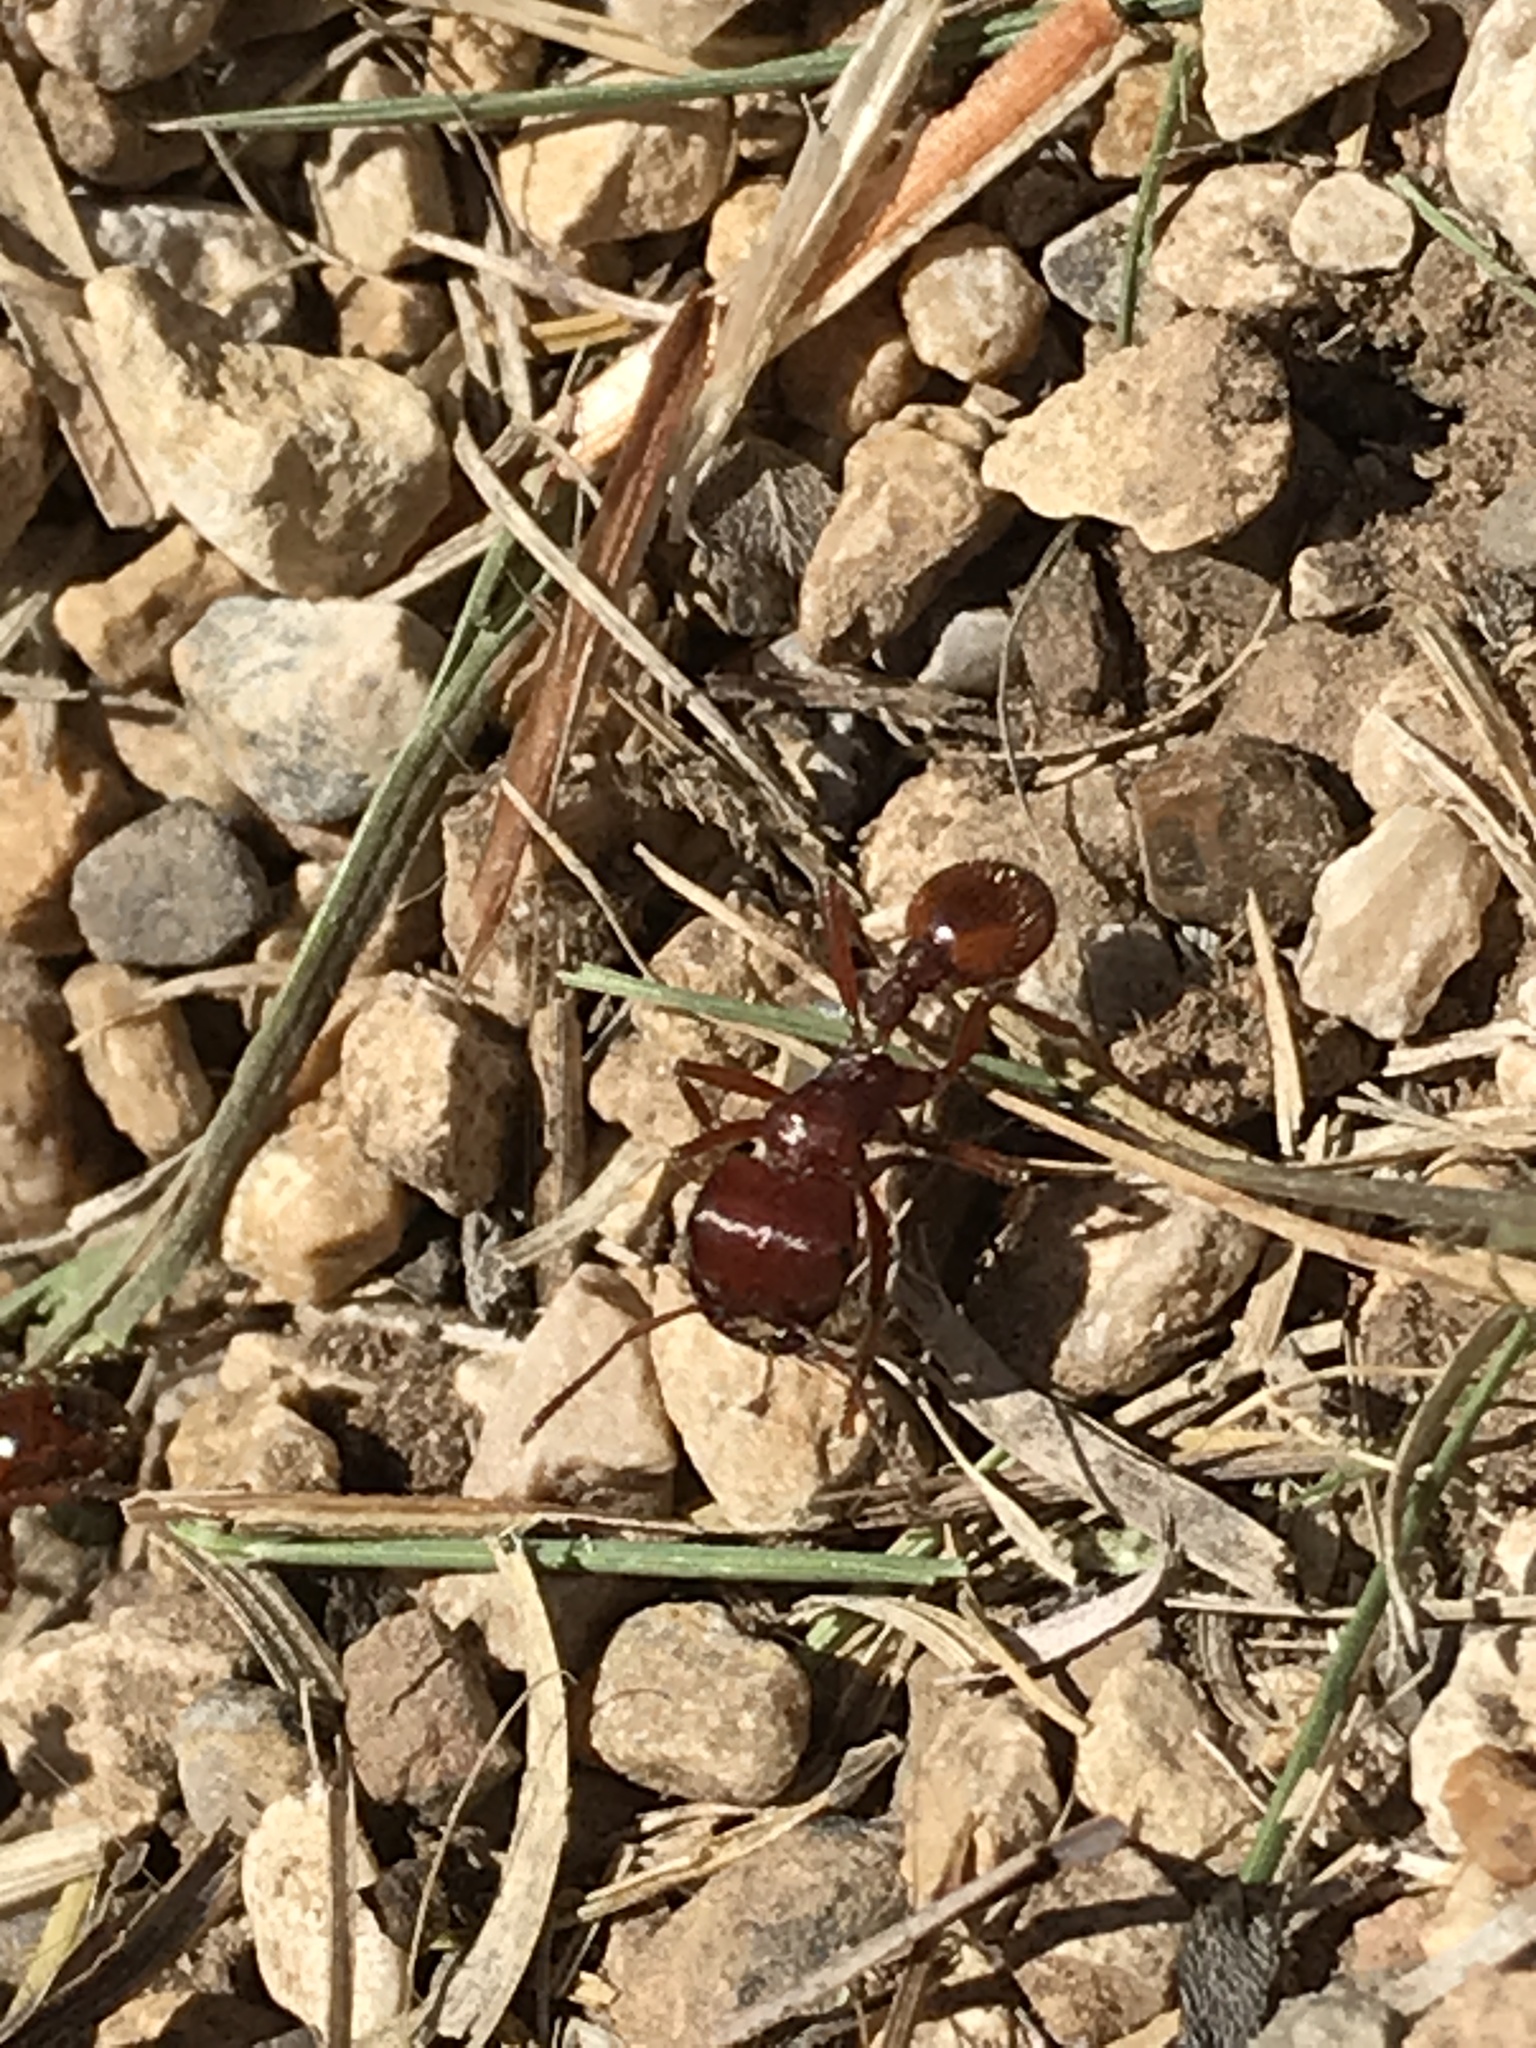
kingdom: Animalia
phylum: Arthropoda
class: Insecta
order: Hymenoptera
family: Formicidae
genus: Pogonomyrmex
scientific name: Pogonomyrmex barbatus
